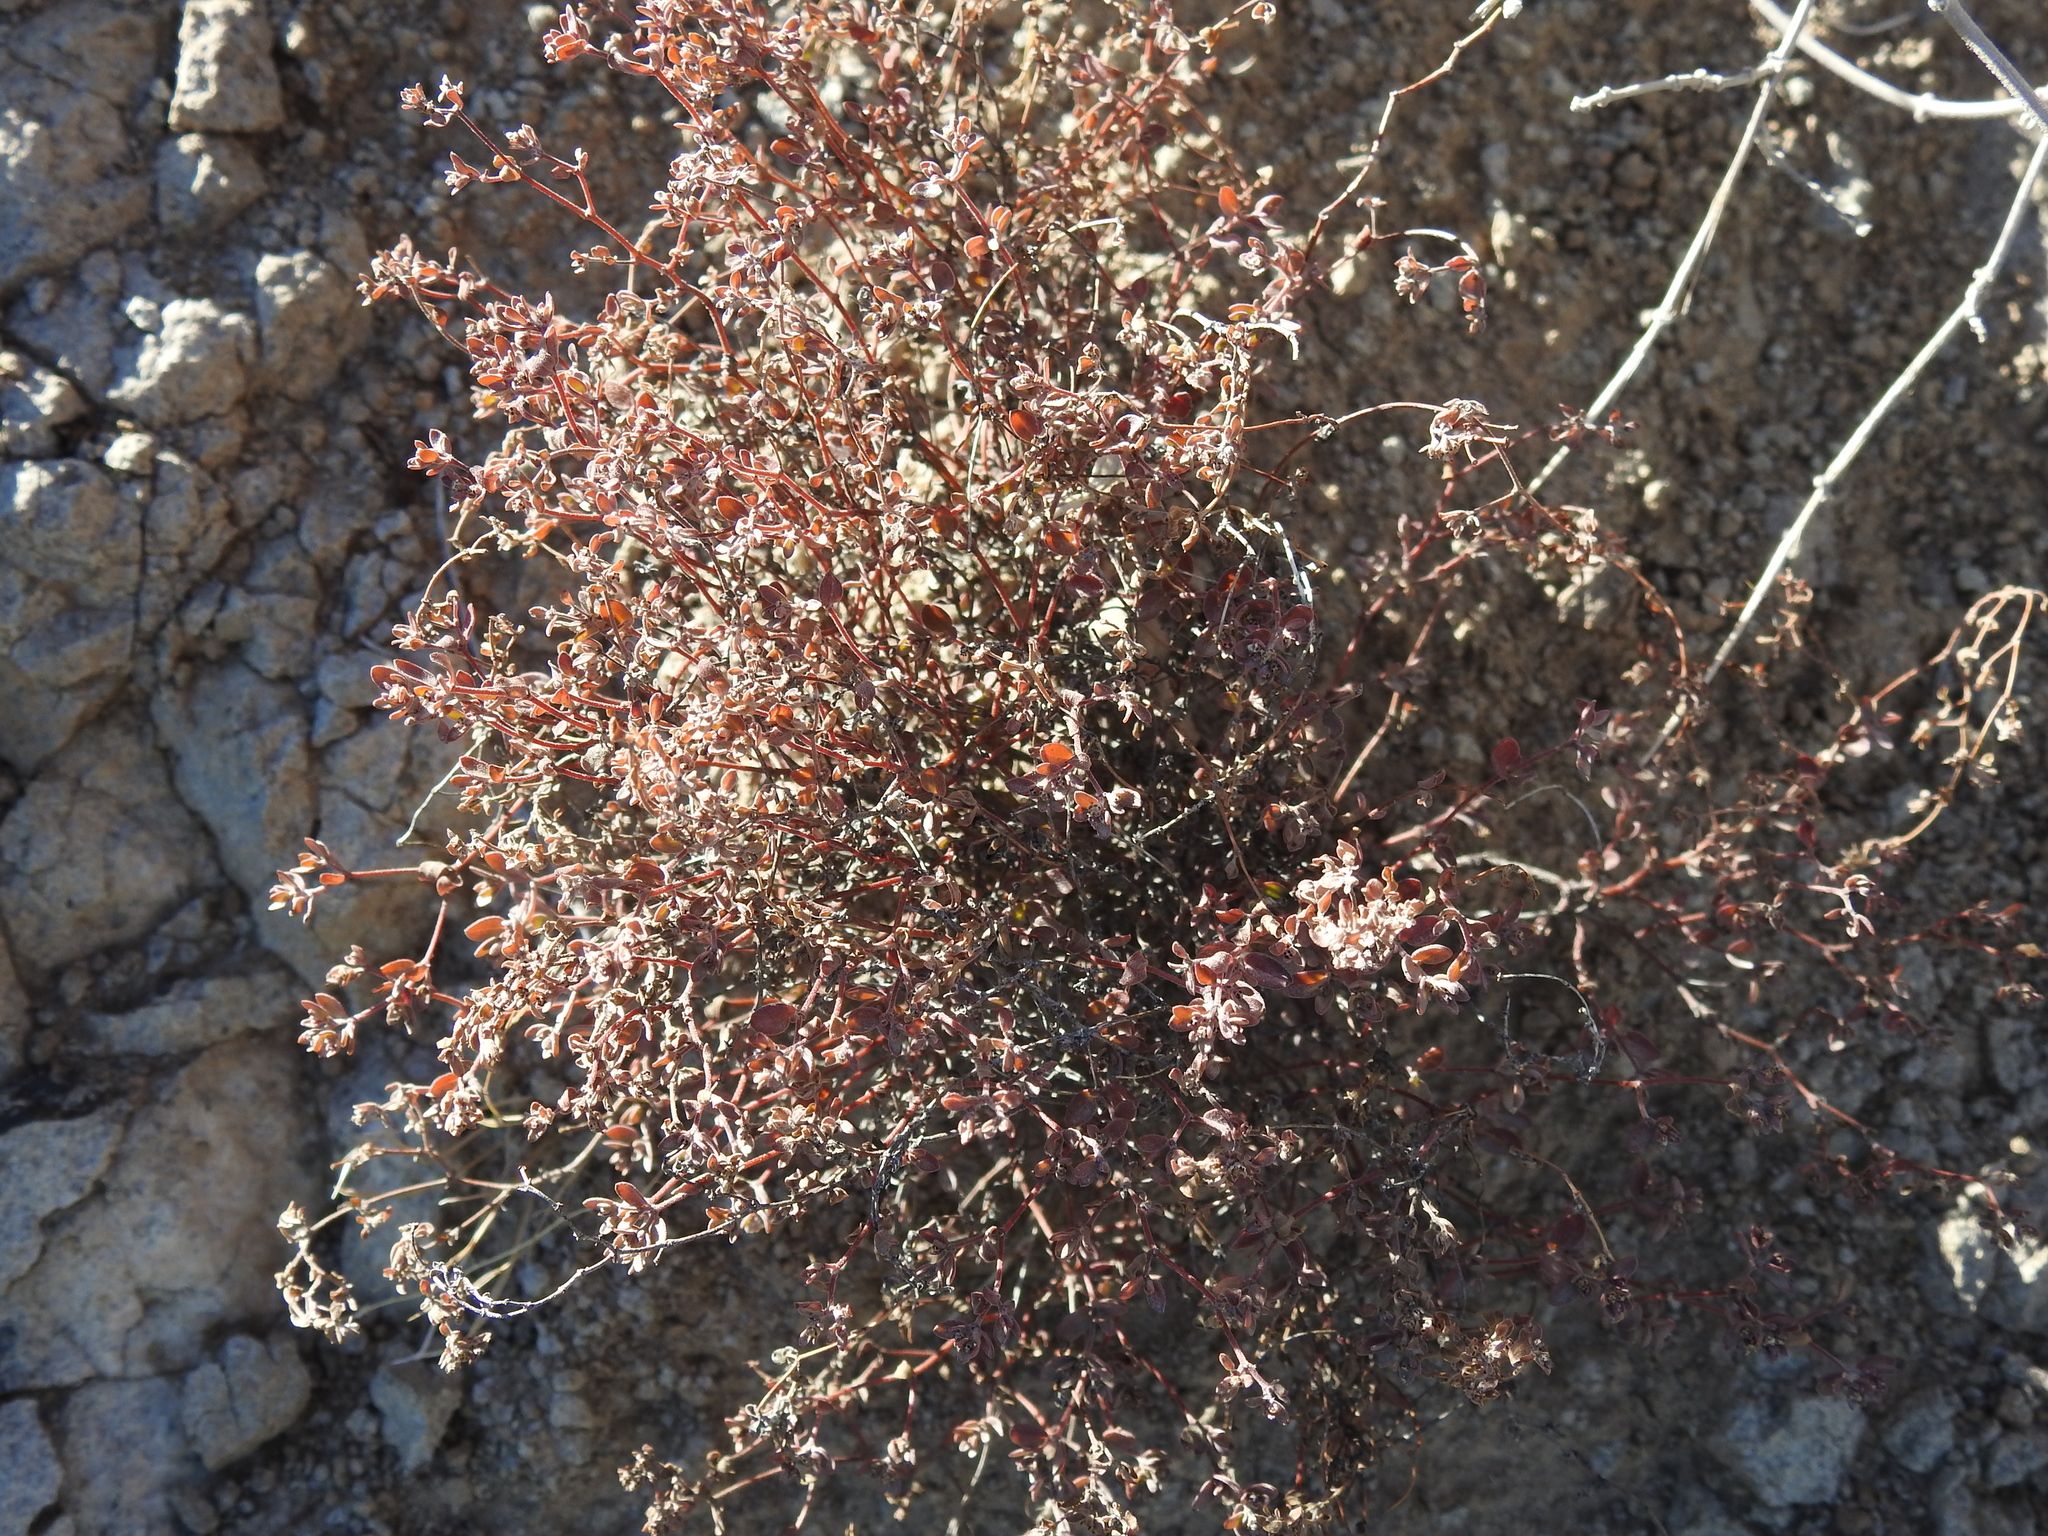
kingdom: Plantae
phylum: Tracheophyta
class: Magnoliopsida
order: Malpighiales
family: Euphorbiaceae
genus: Euphorbia
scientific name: Euphorbia melanadenia
